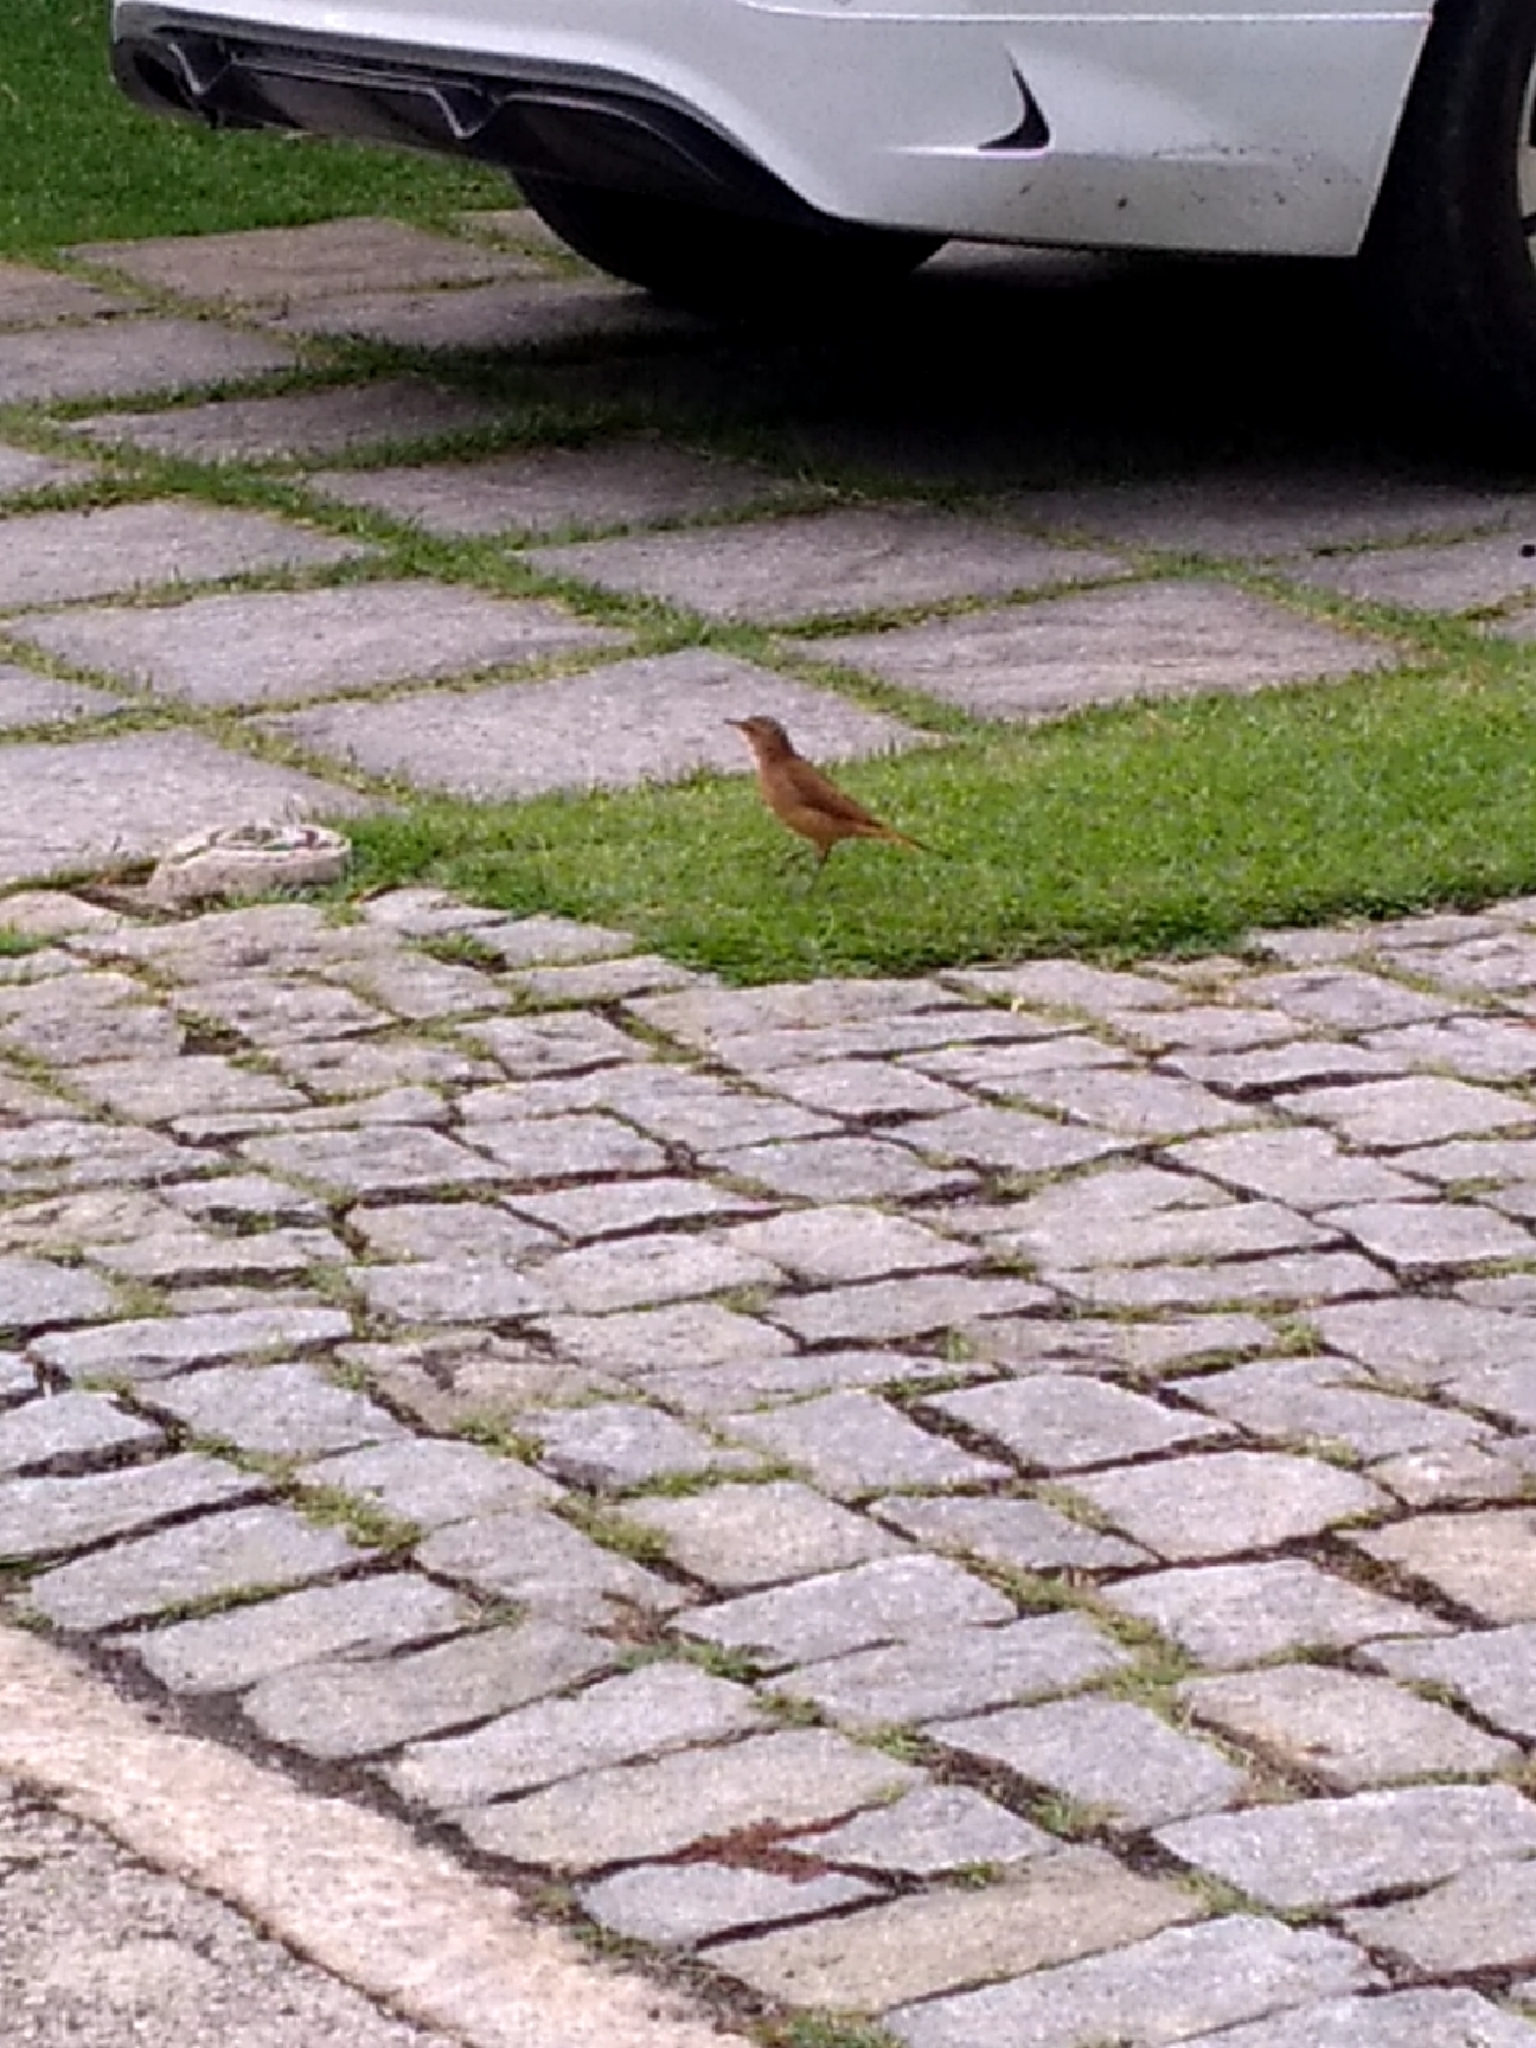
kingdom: Animalia
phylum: Chordata
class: Aves
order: Passeriformes
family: Furnariidae
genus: Furnarius
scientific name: Furnarius rufus
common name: Rufous hornero
